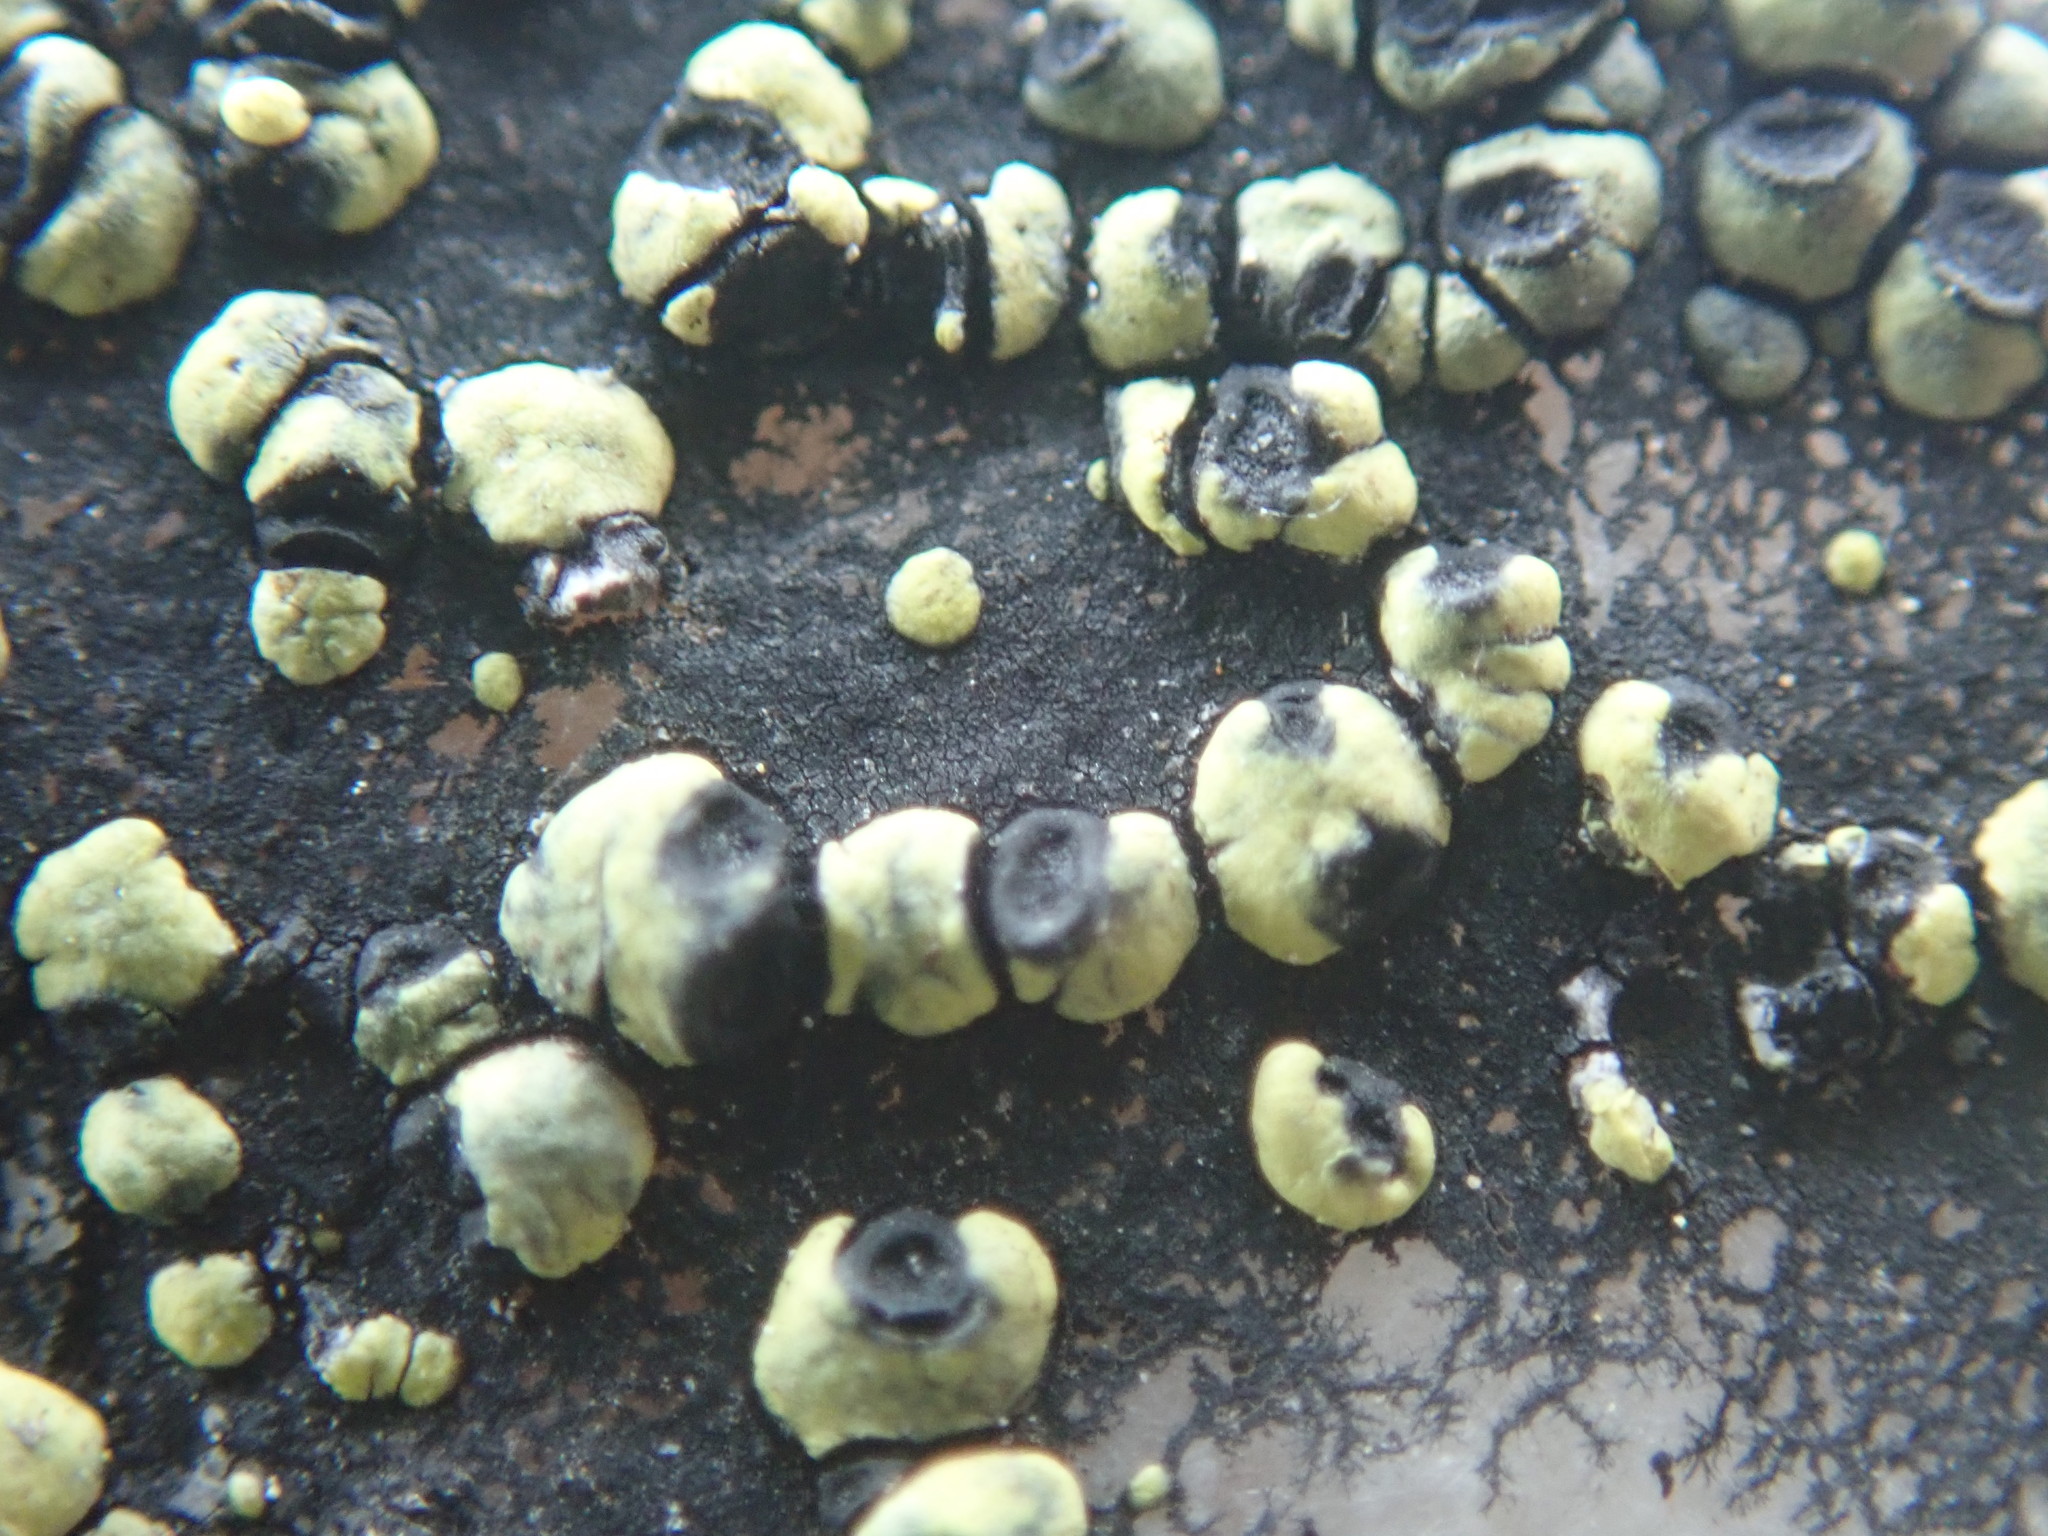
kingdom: Fungi
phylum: Ascomycota
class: Lecanoromycetes
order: Rhizocarpales
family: Rhizocarpaceae
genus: Rhizocarpon
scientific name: Rhizocarpon geographicum
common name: Yellow map lichen
